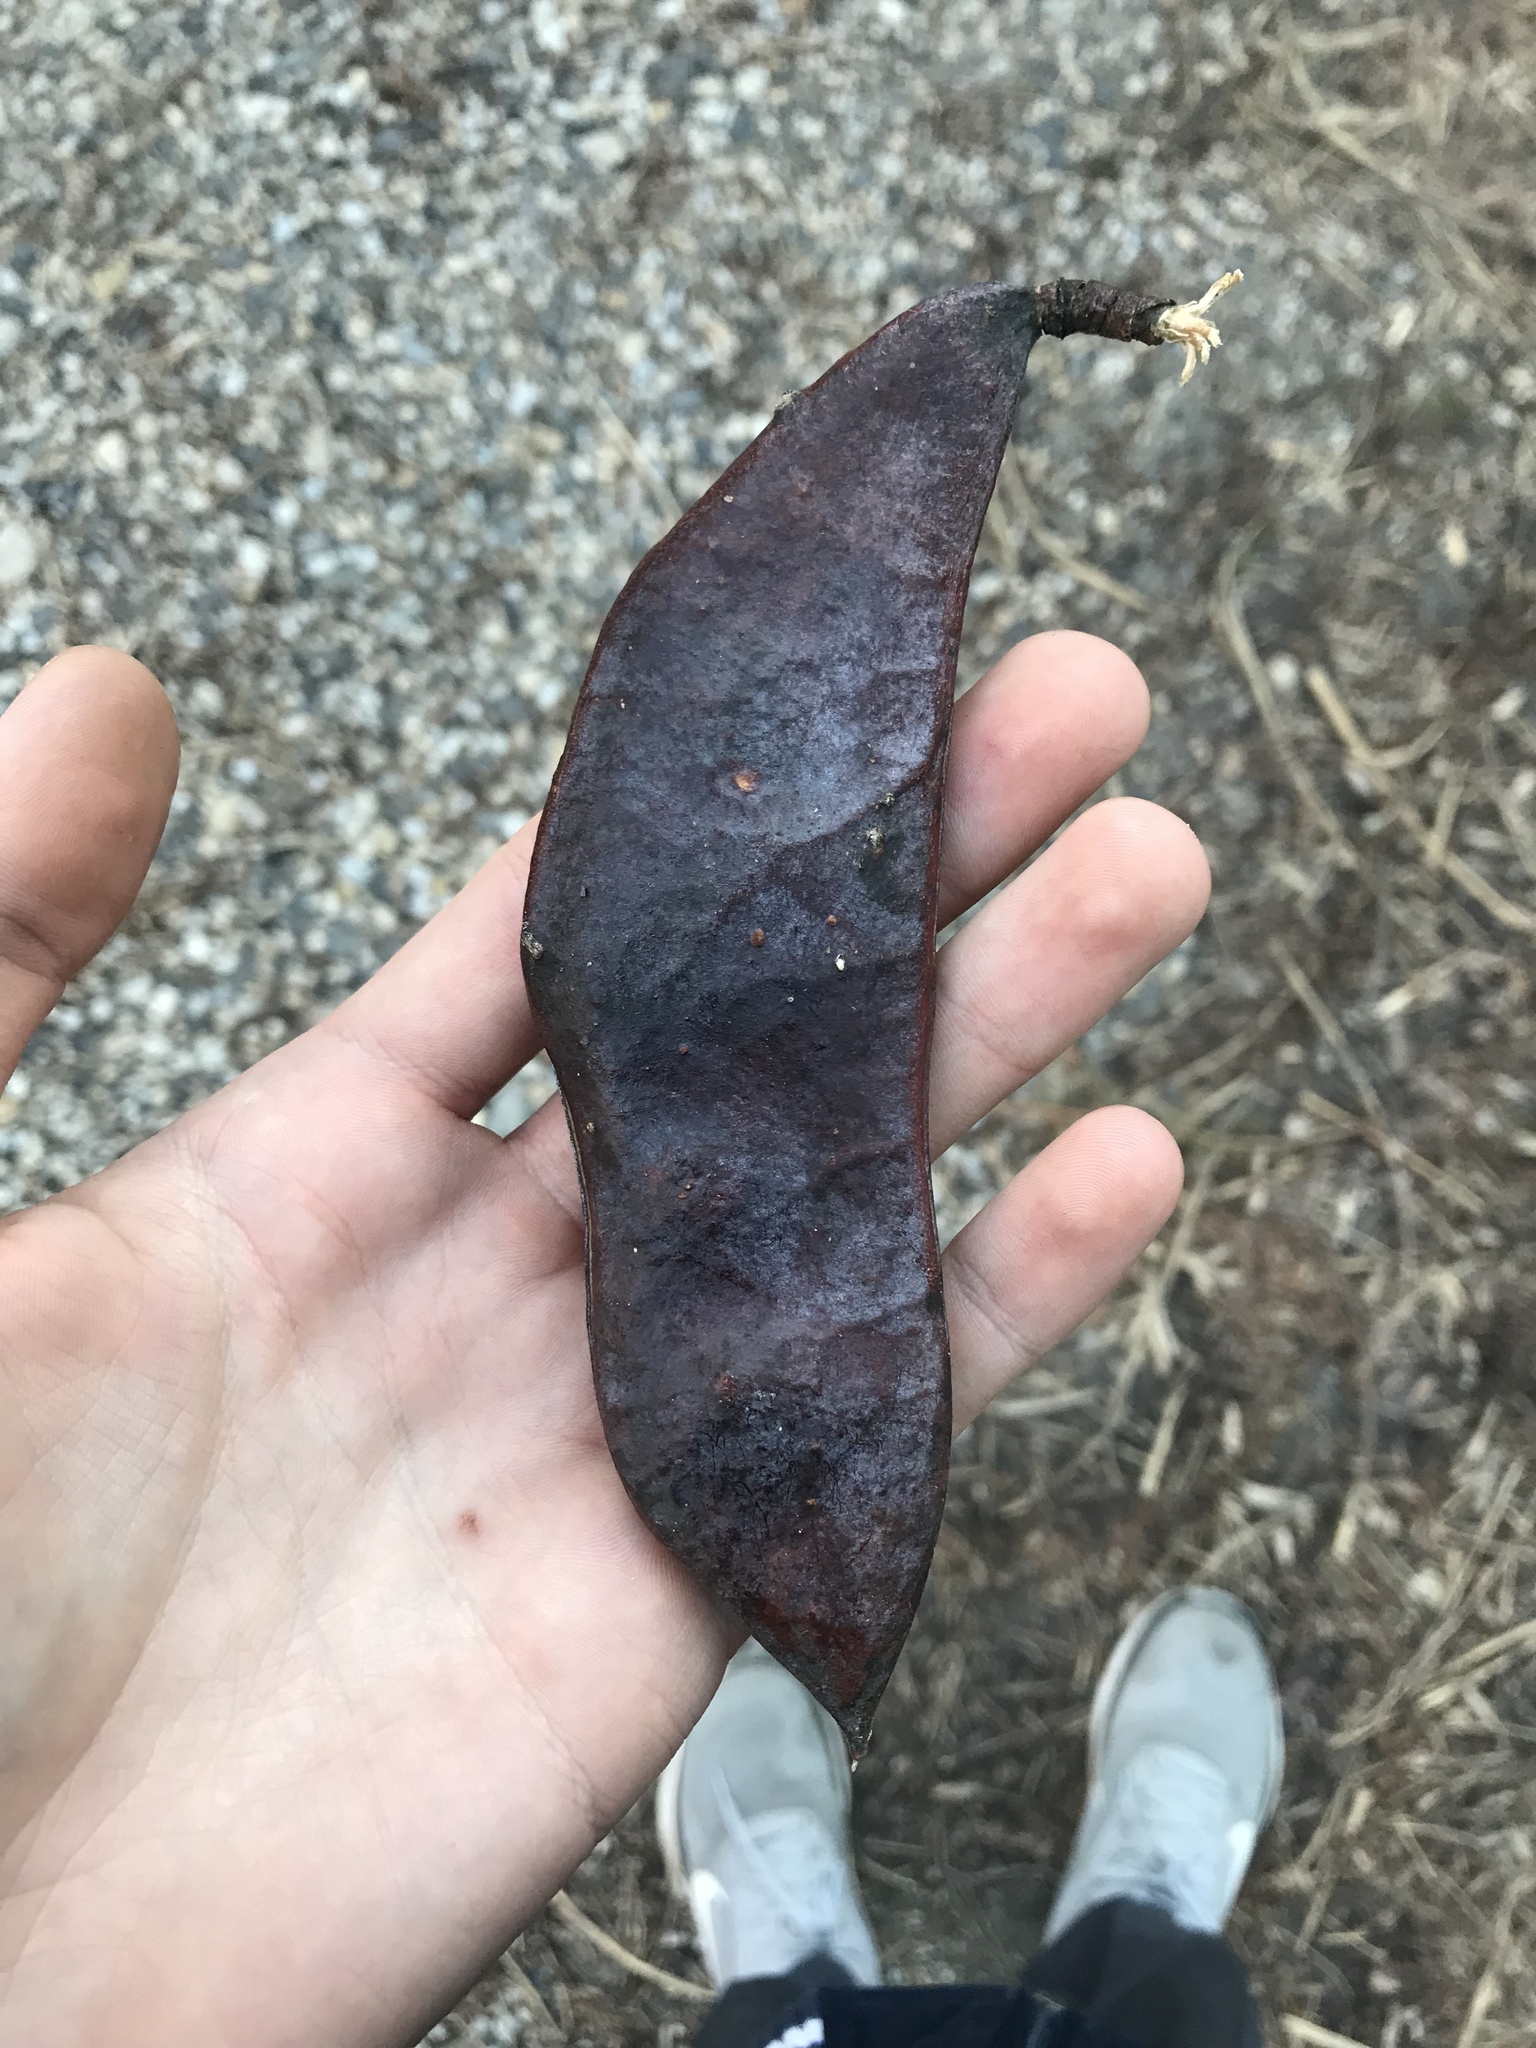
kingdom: Plantae
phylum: Tracheophyta
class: Magnoliopsida
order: Fabales
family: Fabaceae
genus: Gymnocladus
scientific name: Gymnocladus dioicus
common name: Kentucky coffee-tree
